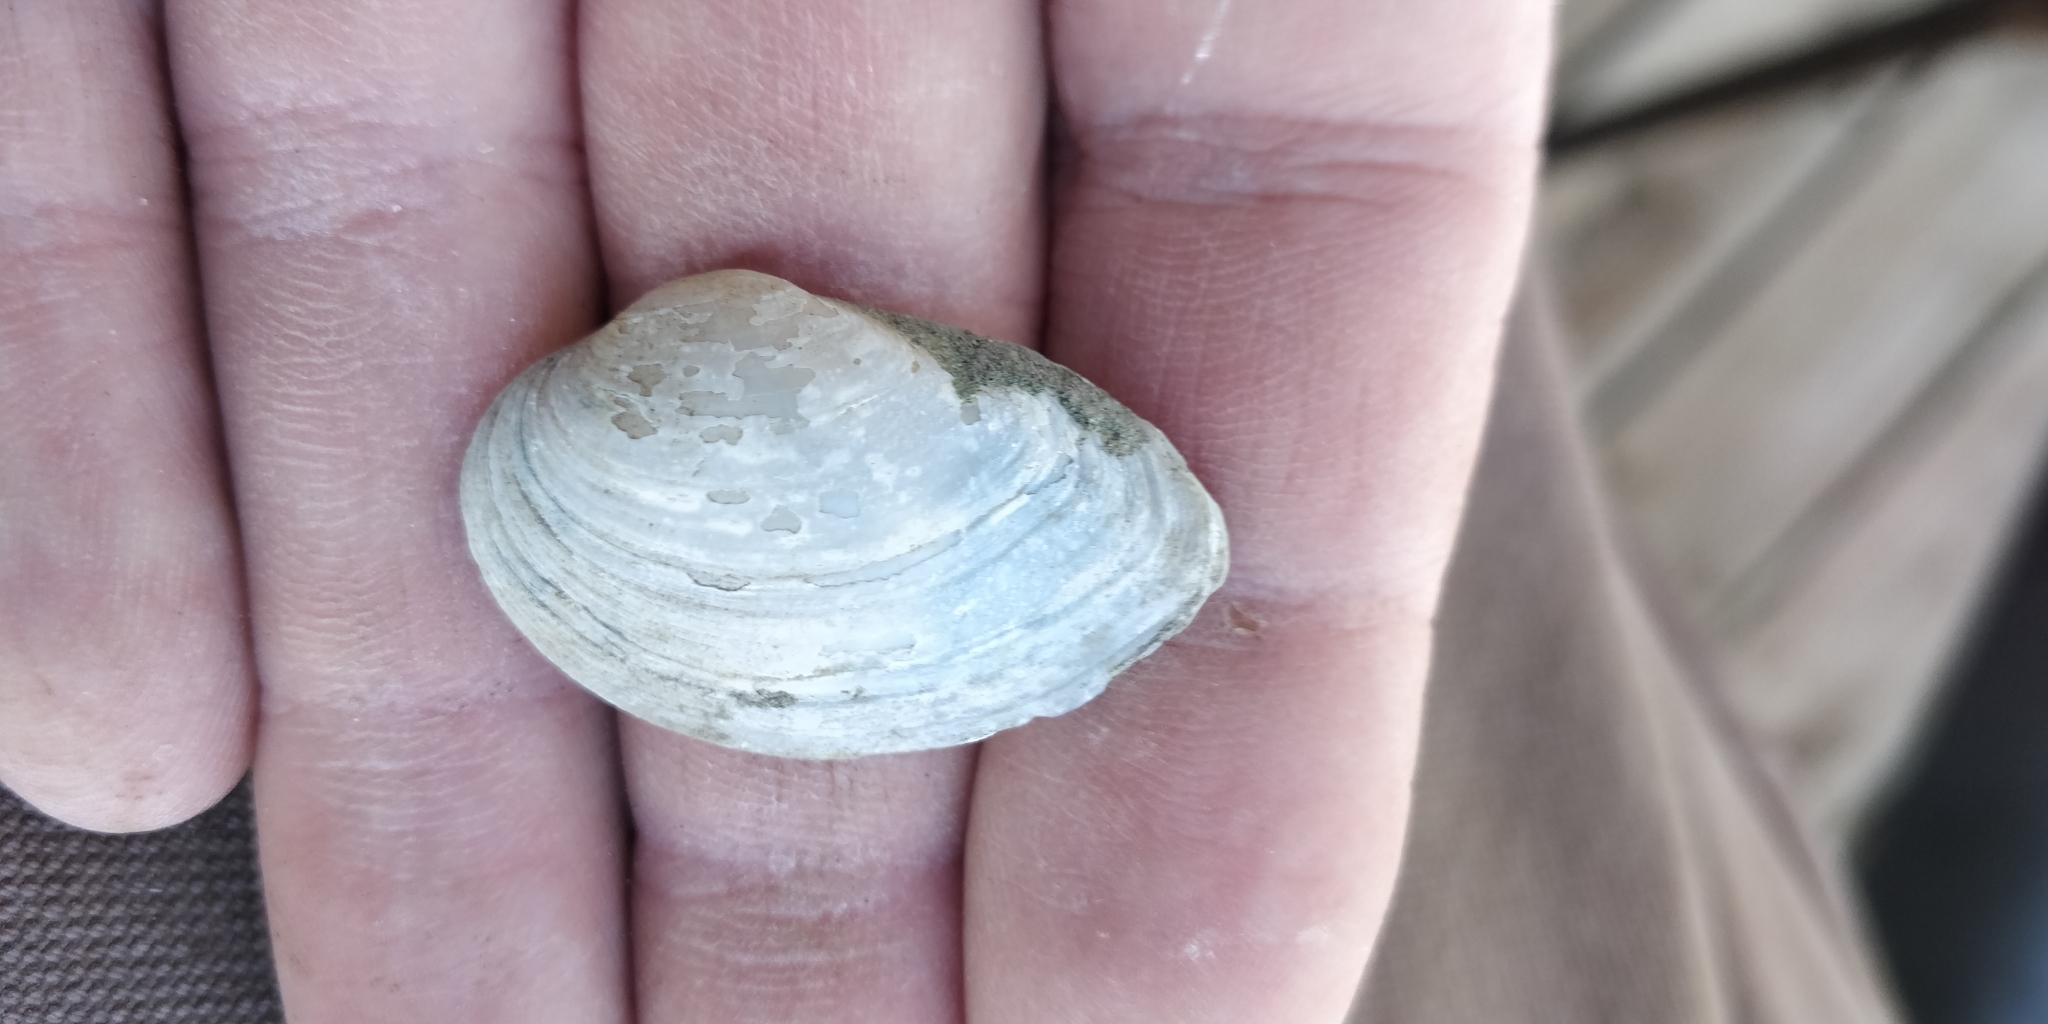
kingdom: Animalia
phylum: Mollusca
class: Bivalvia
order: Unionida
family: Unionidae
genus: Truncilla
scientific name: Truncilla donaciformis
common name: Fawnsfoot
